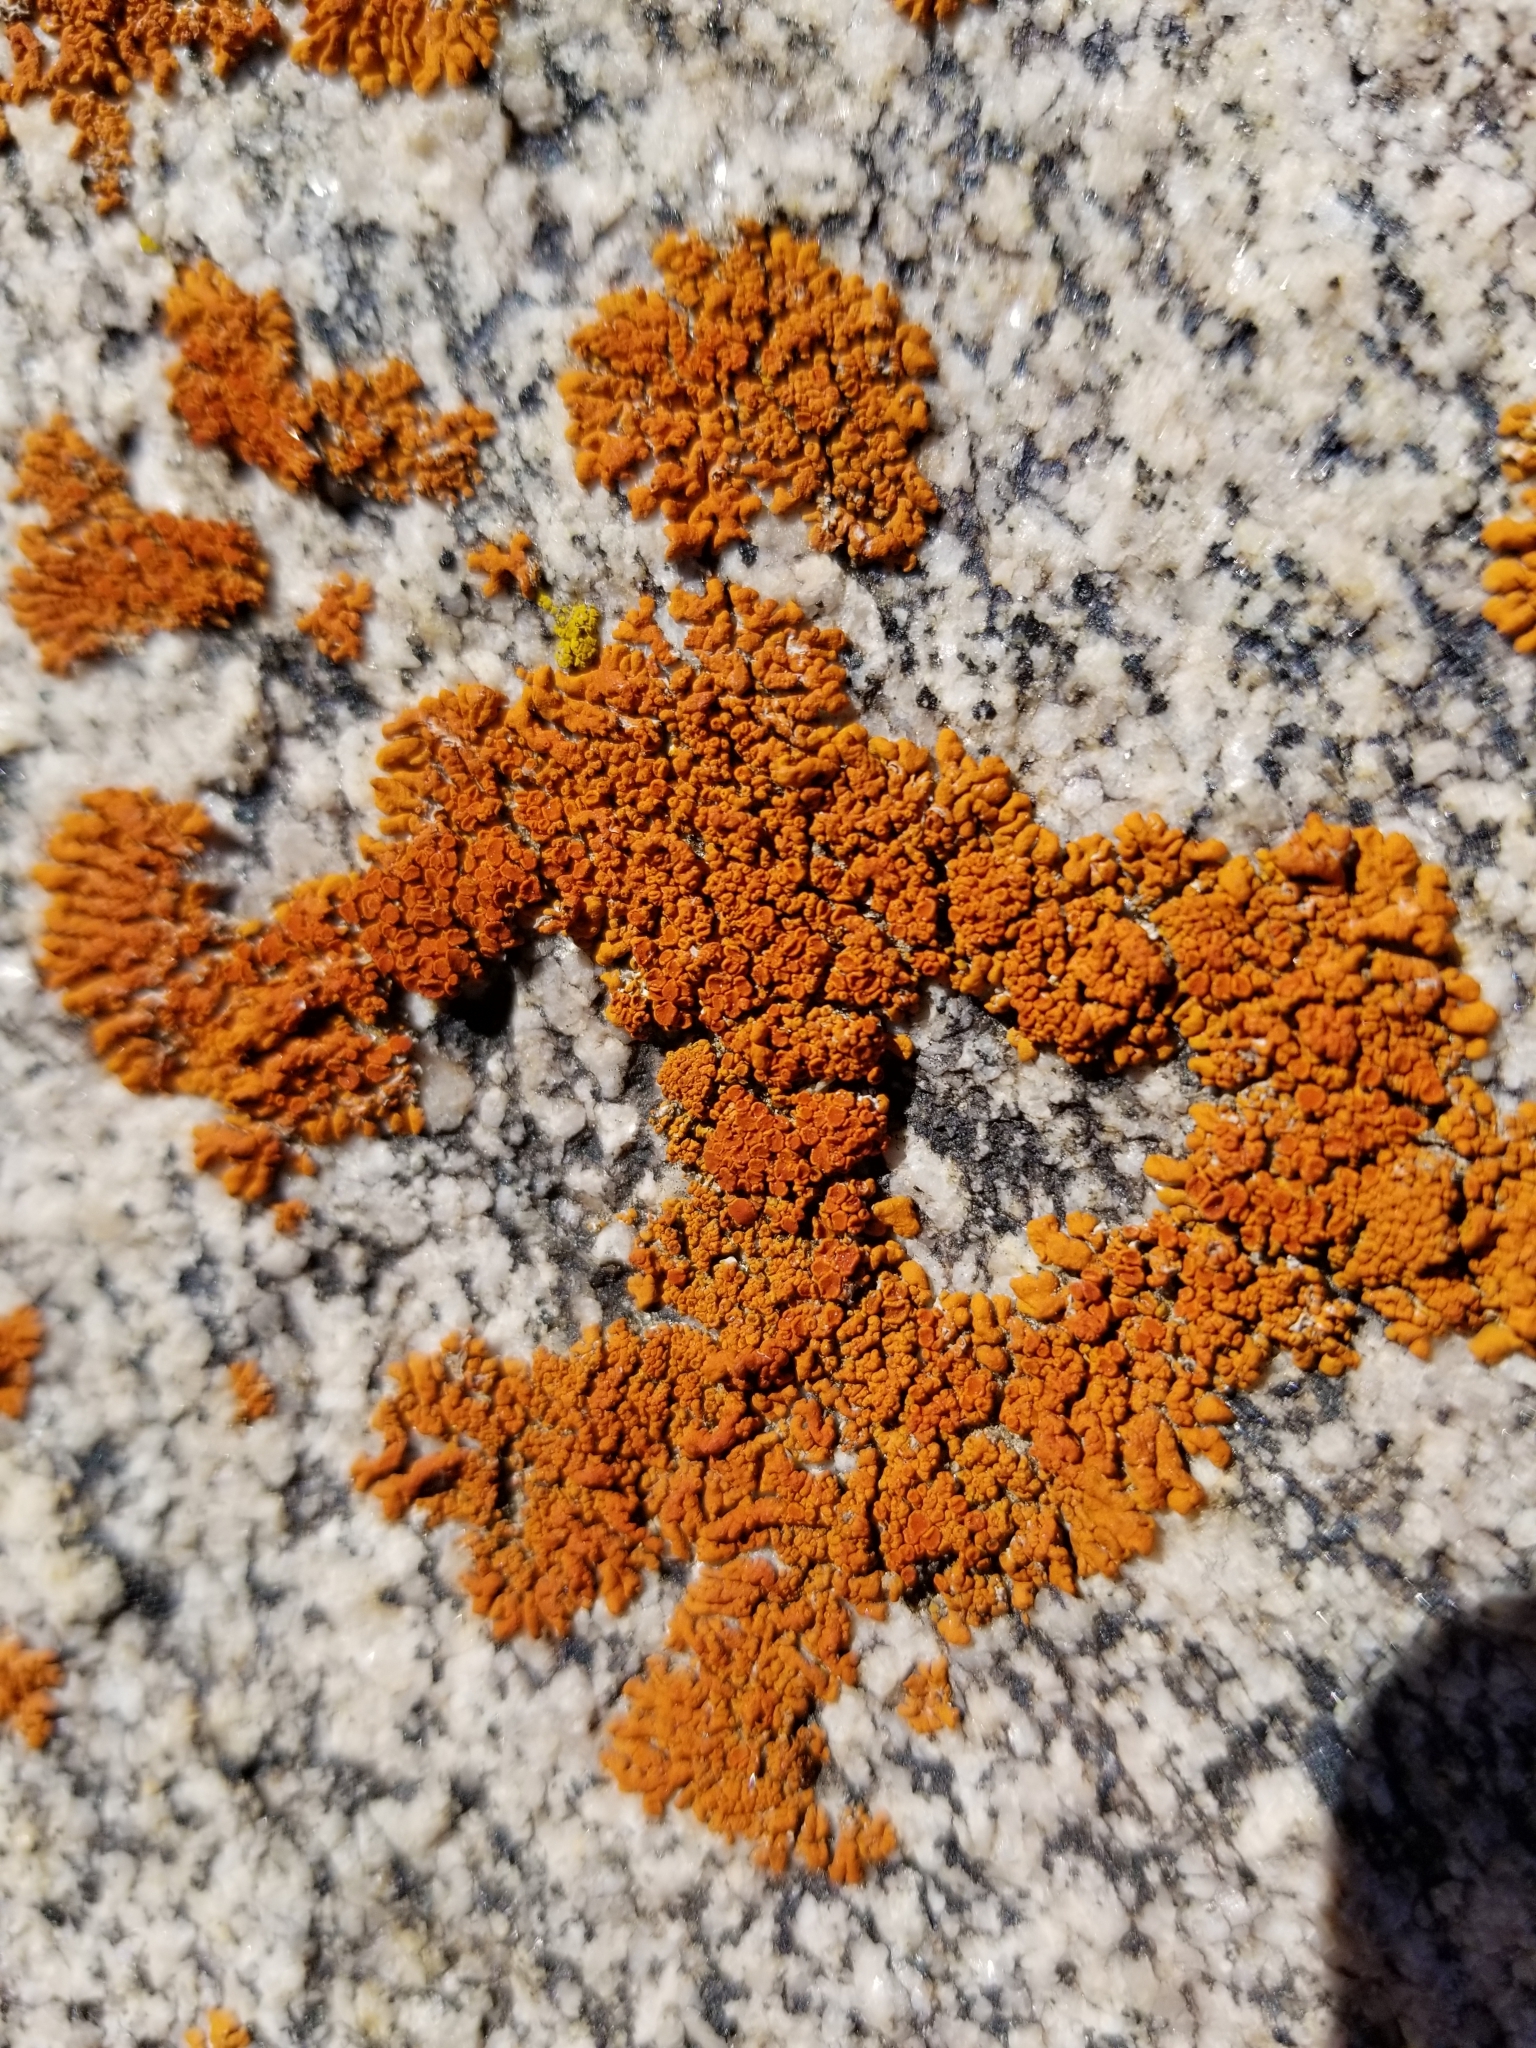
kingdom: Fungi
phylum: Ascomycota
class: Lecanoromycetes
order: Teloschistales
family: Teloschistaceae
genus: Xanthoria
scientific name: Xanthoria elegans
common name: Elegant sunburst lichen
